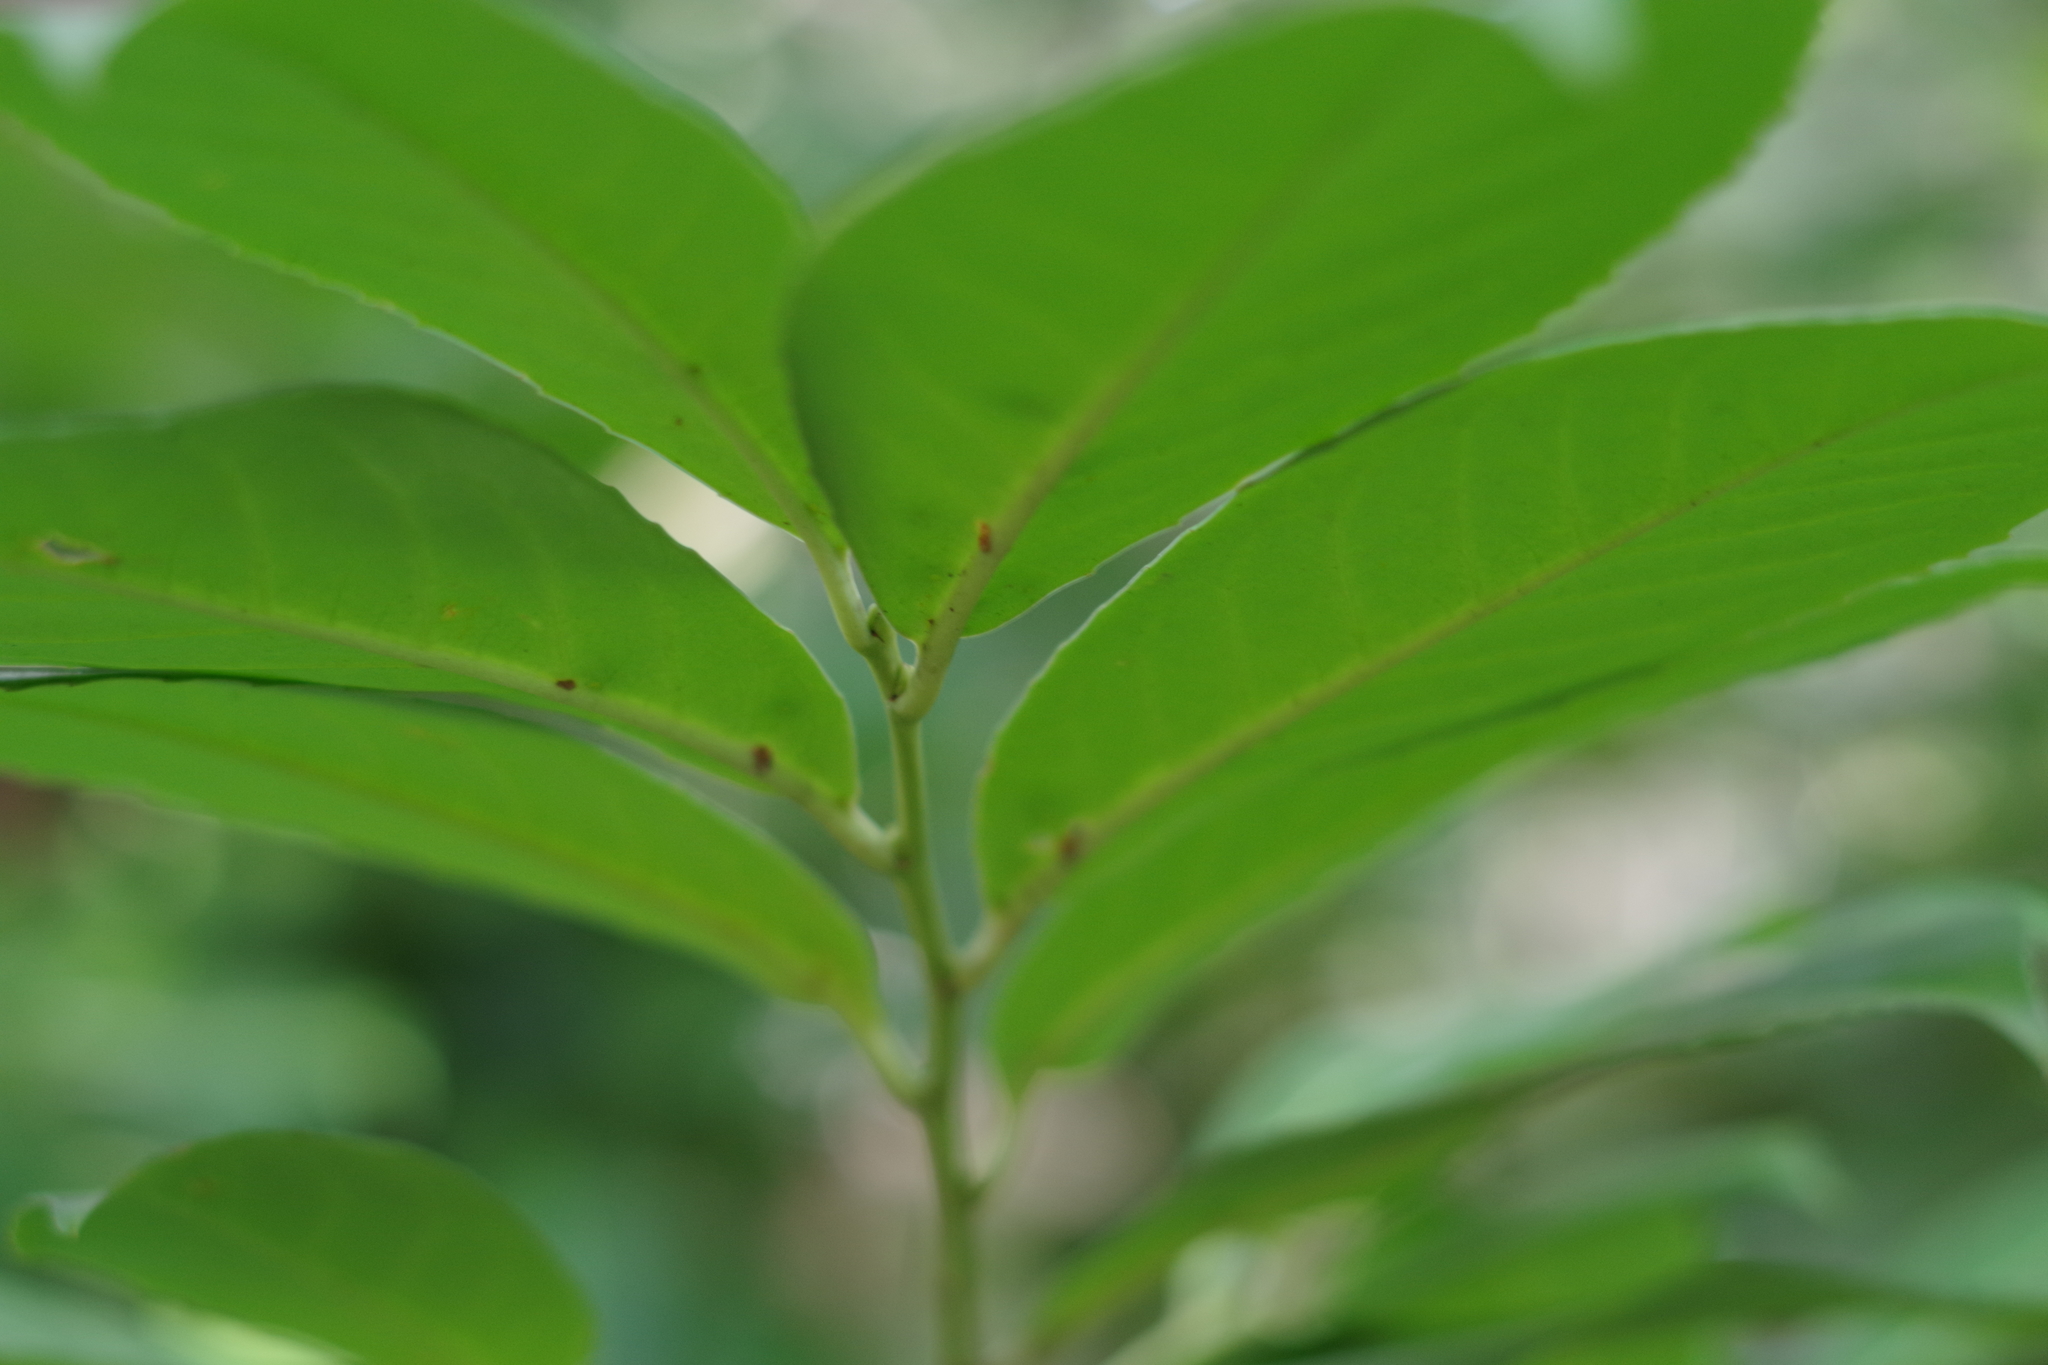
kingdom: Plantae
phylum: Tracheophyta
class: Magnoliopsida
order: Rosales
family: Rosaceae
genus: Prunus
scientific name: Prunus laurocerasus
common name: Cherry laurel
